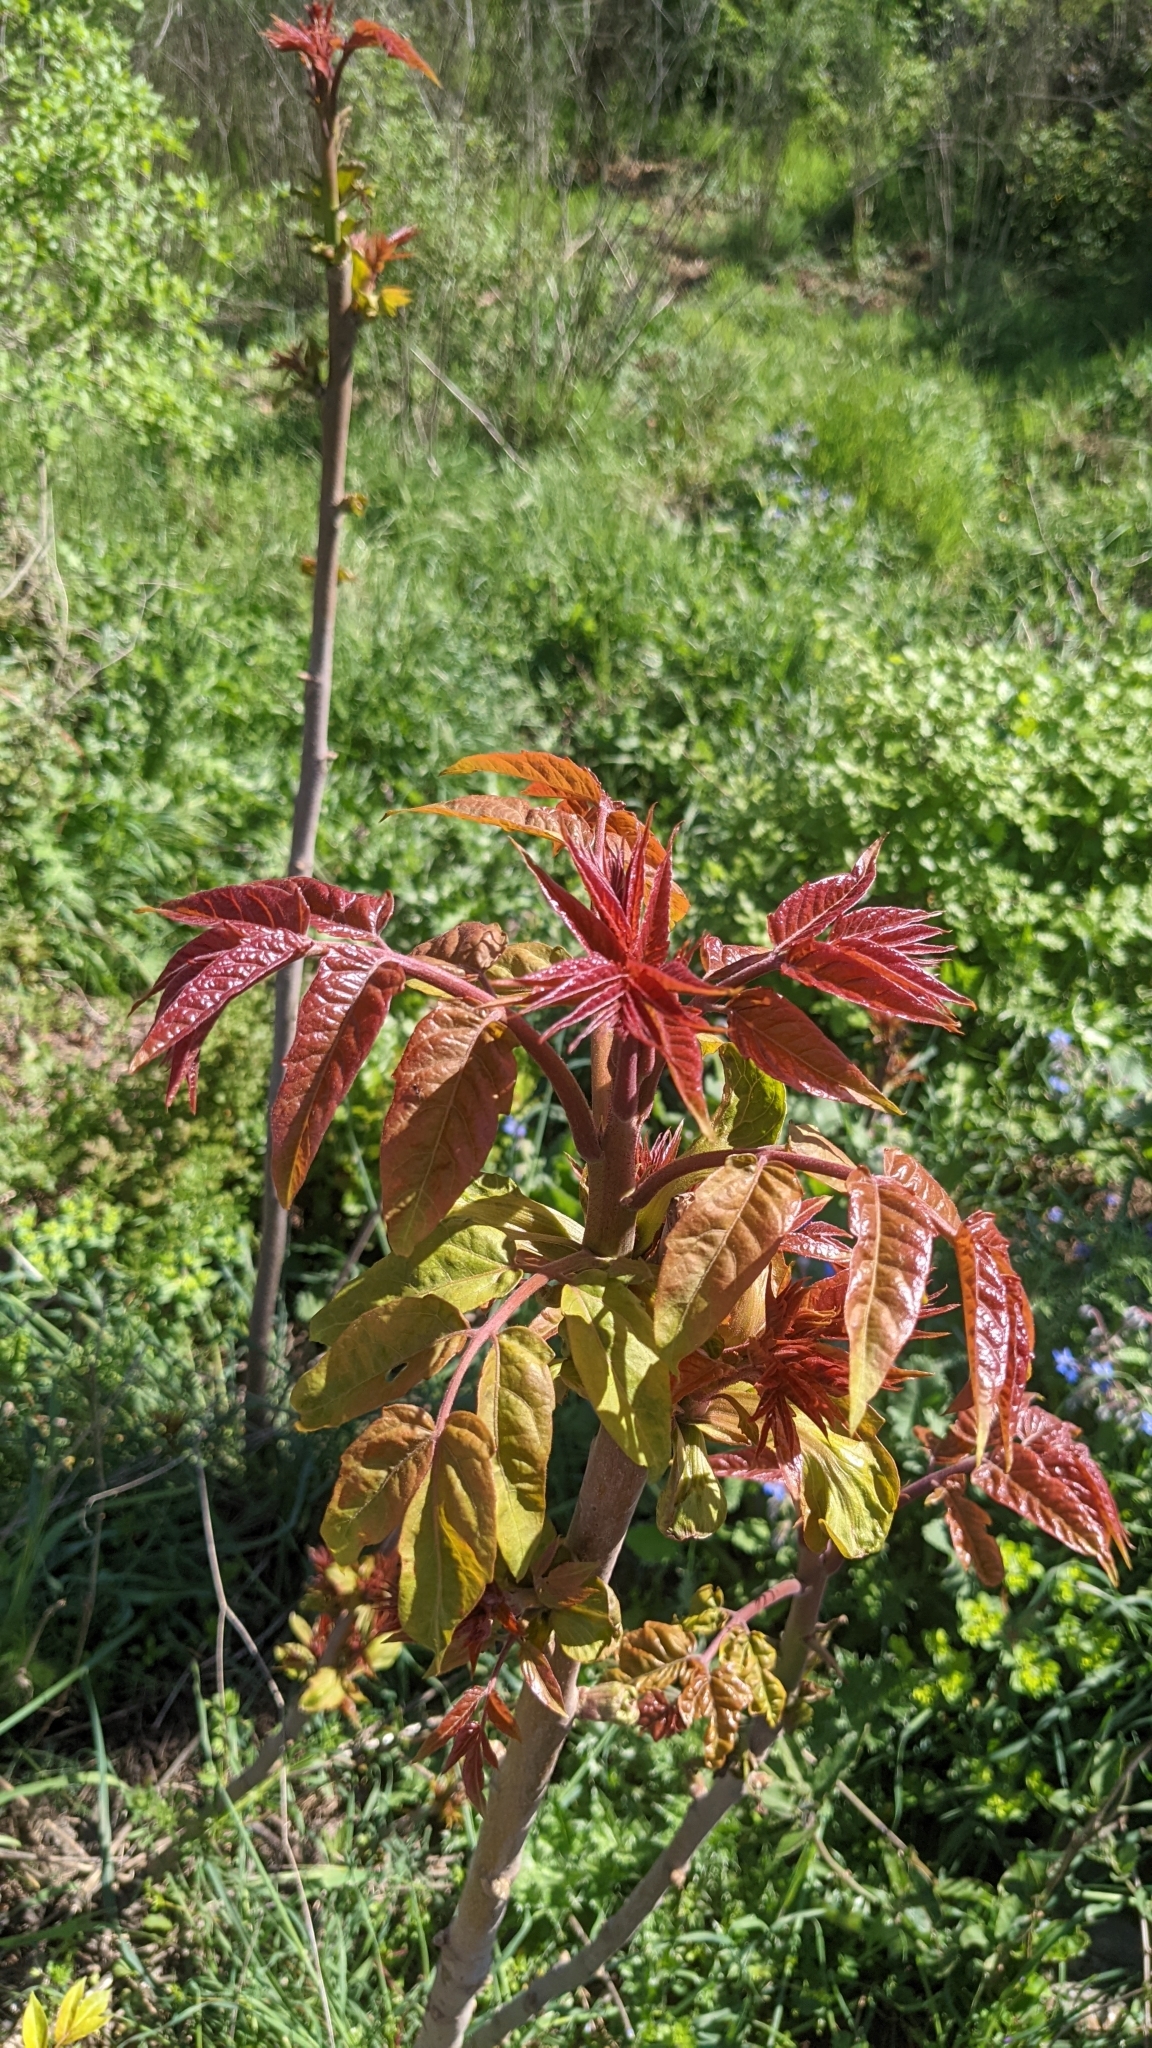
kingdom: Plantae
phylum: Tracheophyta
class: Magnoliopsida
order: Sapindales
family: Simaroubaceae
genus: Ailanthus
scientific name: Ailanthus altissima
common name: Tree-of-heaven
